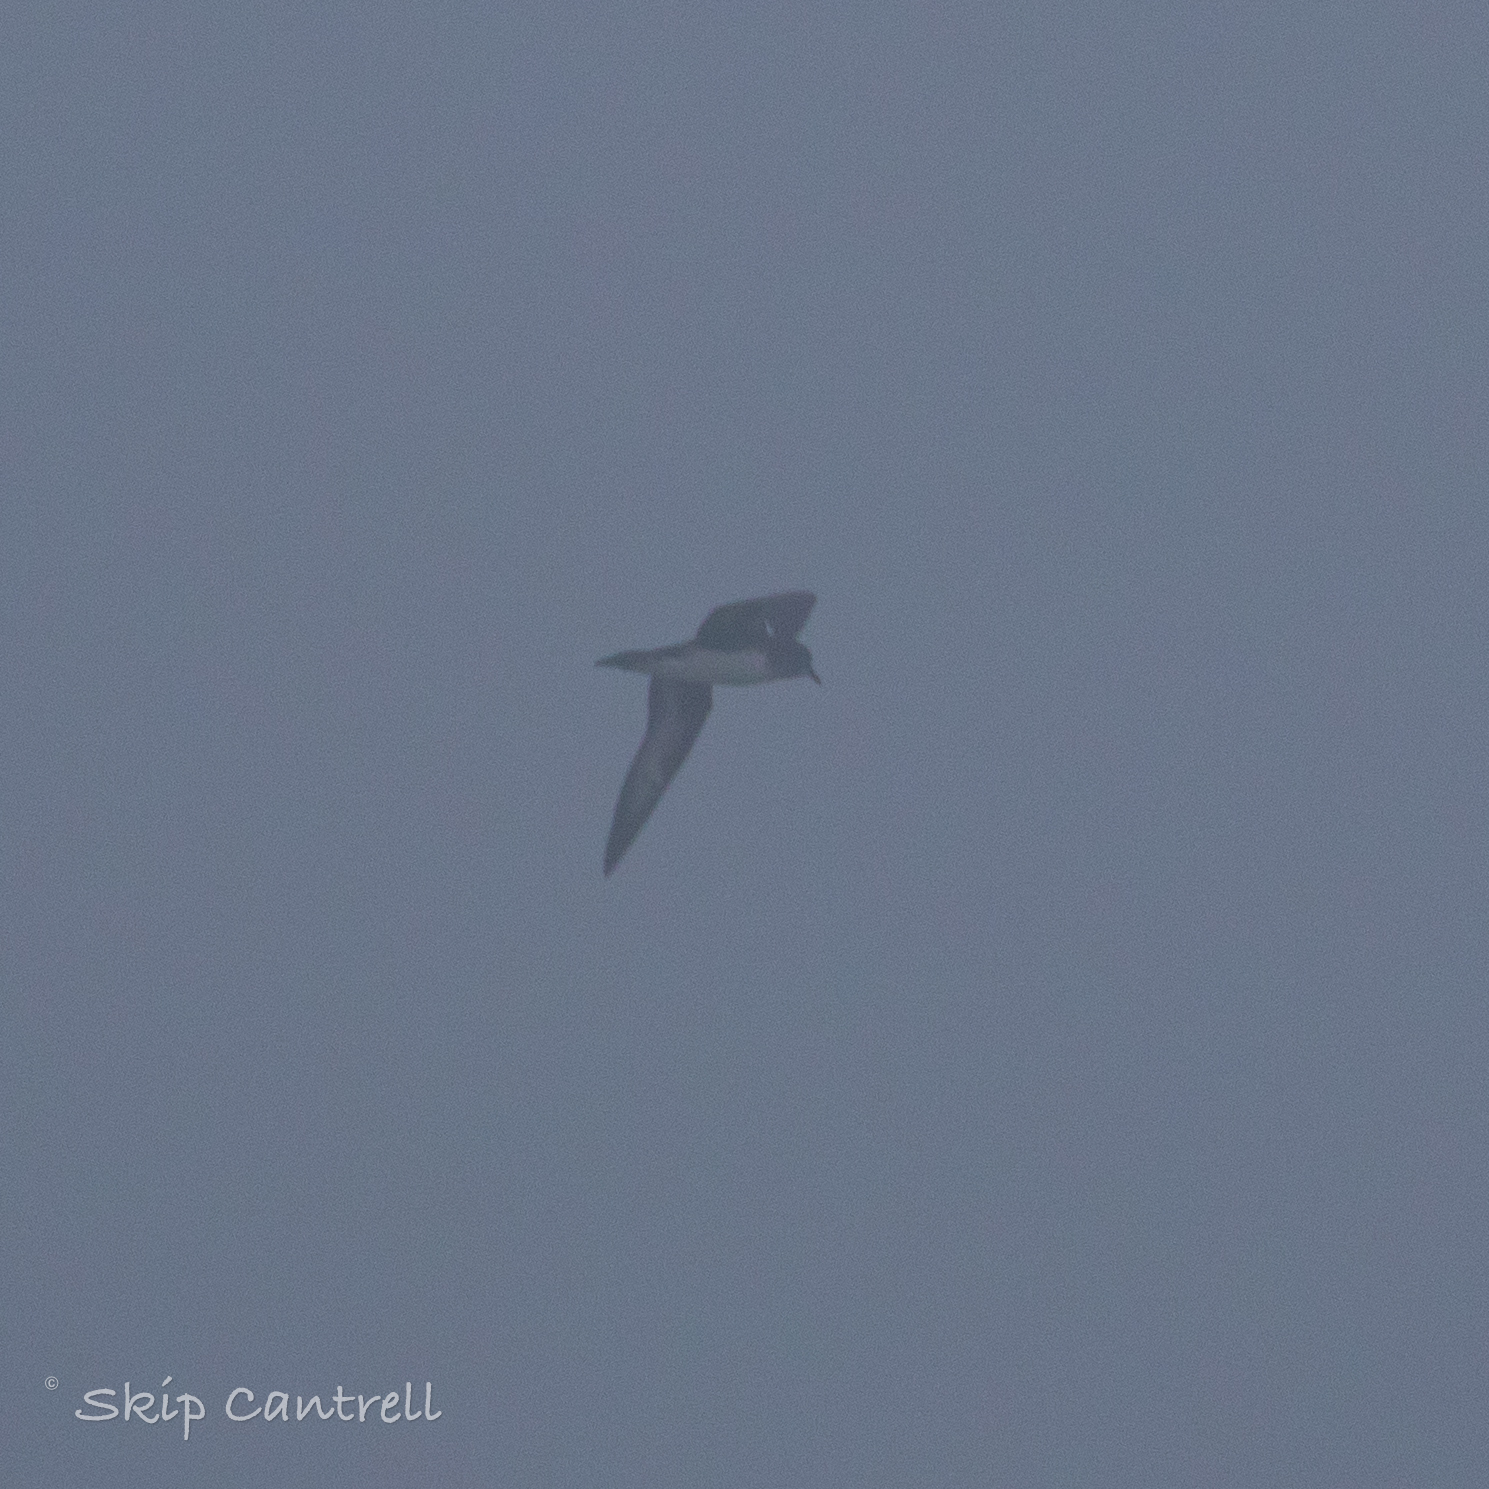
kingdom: Animalia
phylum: Chordata
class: Aves
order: Procellariiformes
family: Procellariidae
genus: Pterodroma
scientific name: Pterodroma arminjoniana
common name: Trindade petrel
